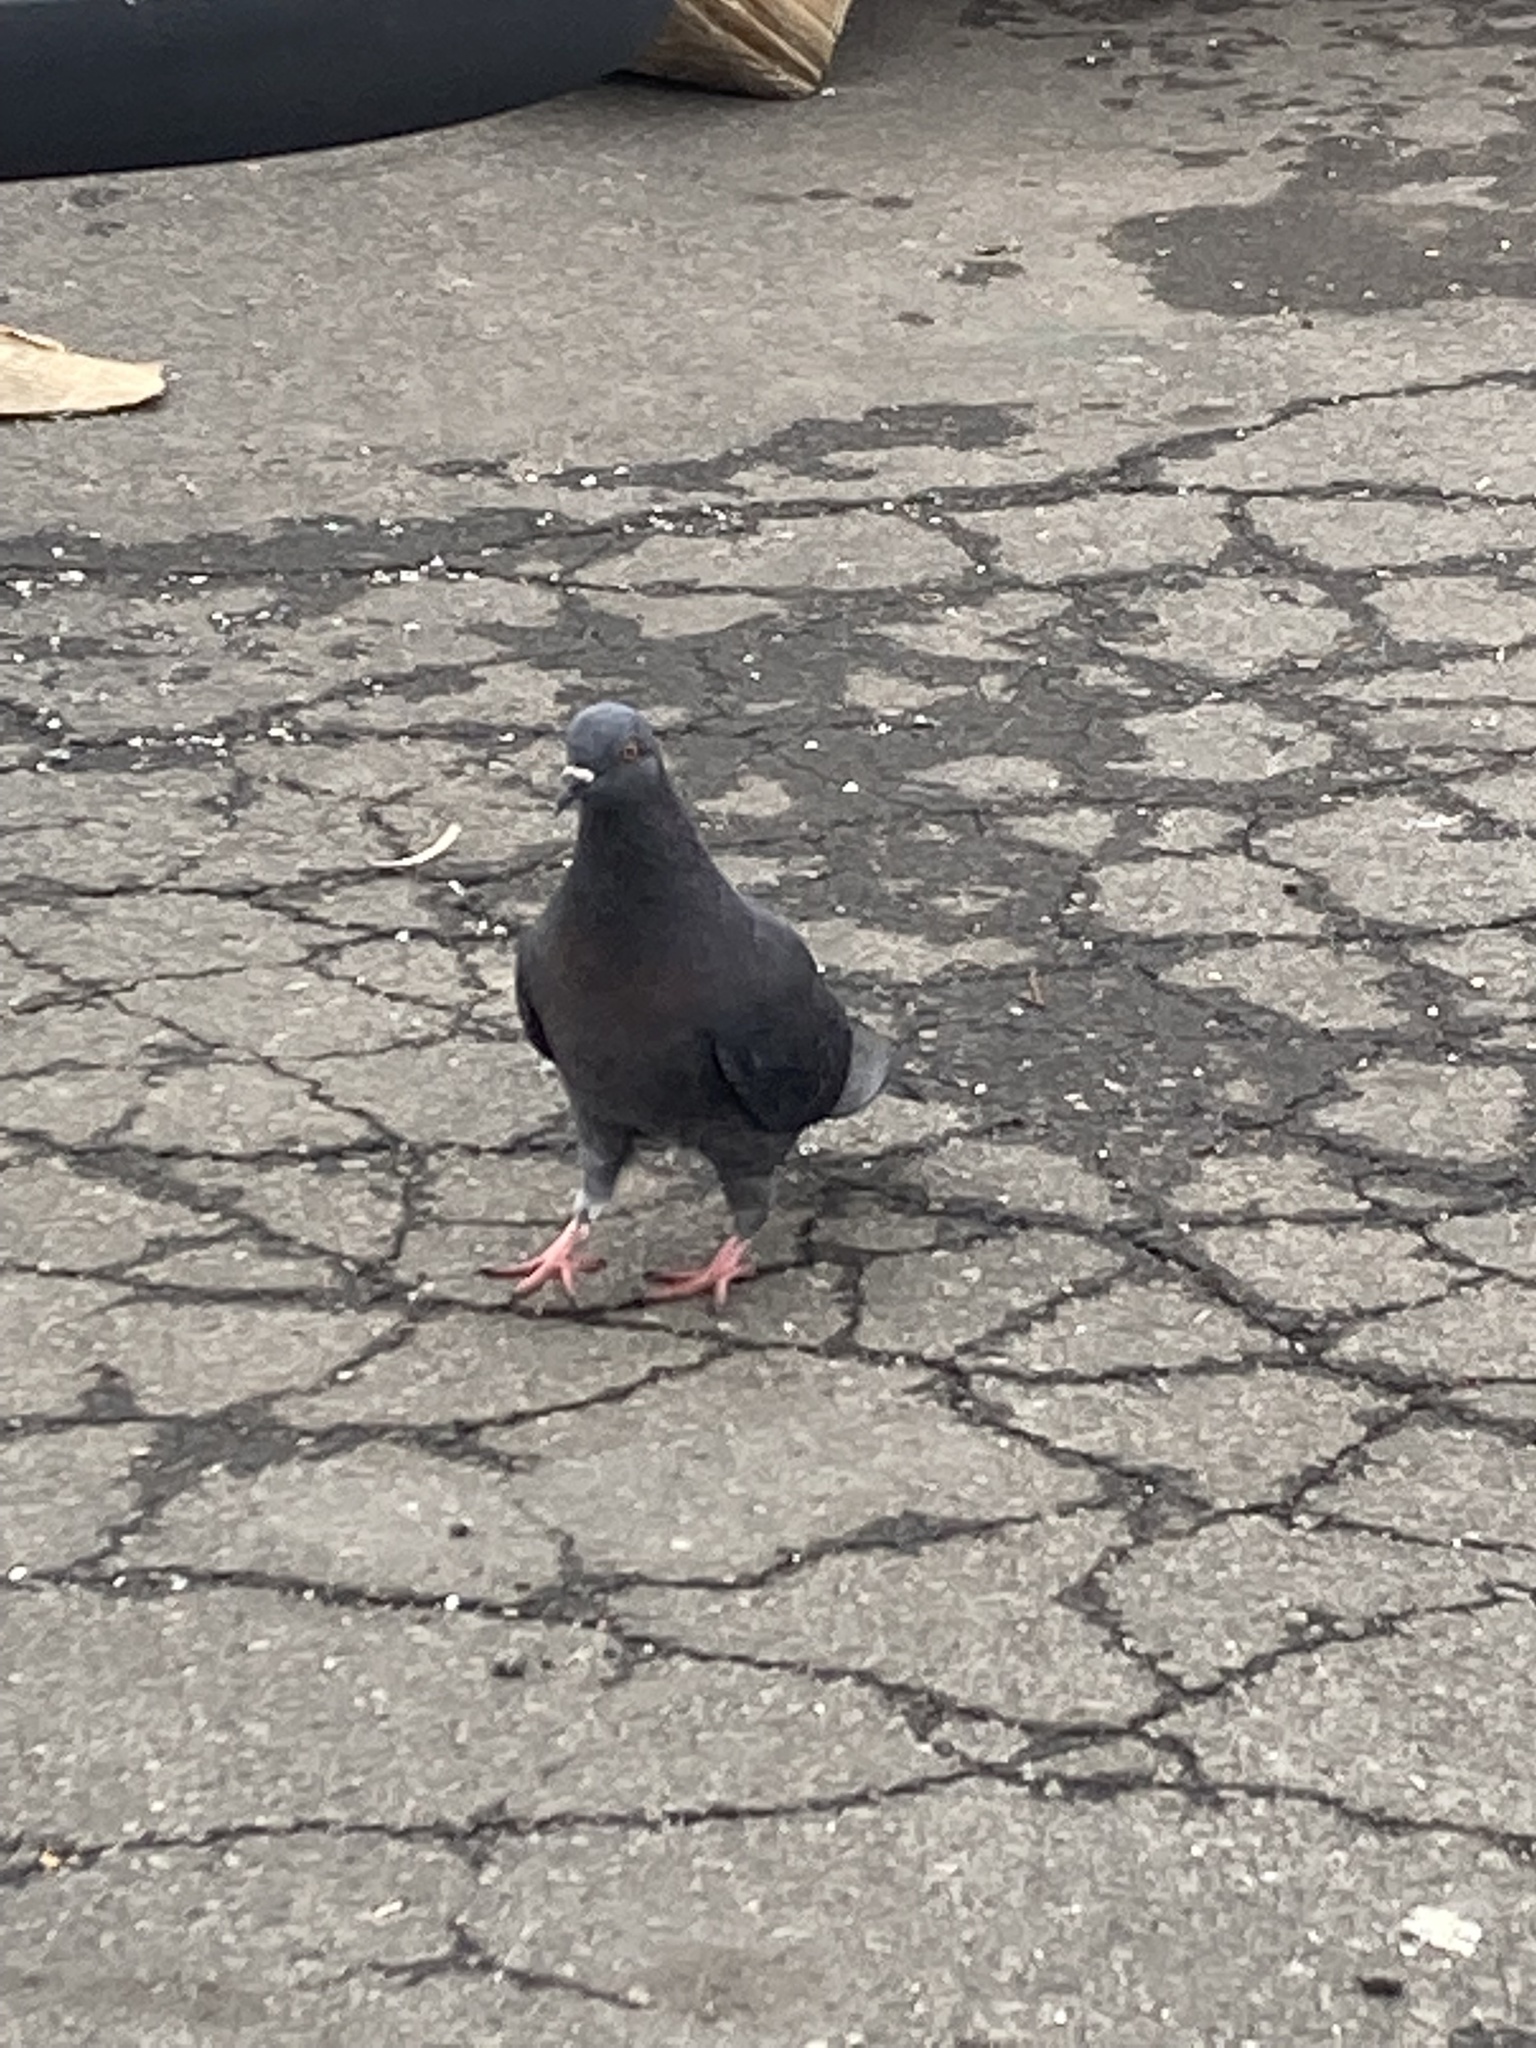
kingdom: Animalia
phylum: Chordata
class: Aves
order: Columbiformes
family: Columbidae
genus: Columba
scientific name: Columba livia
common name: Rock pigeon
